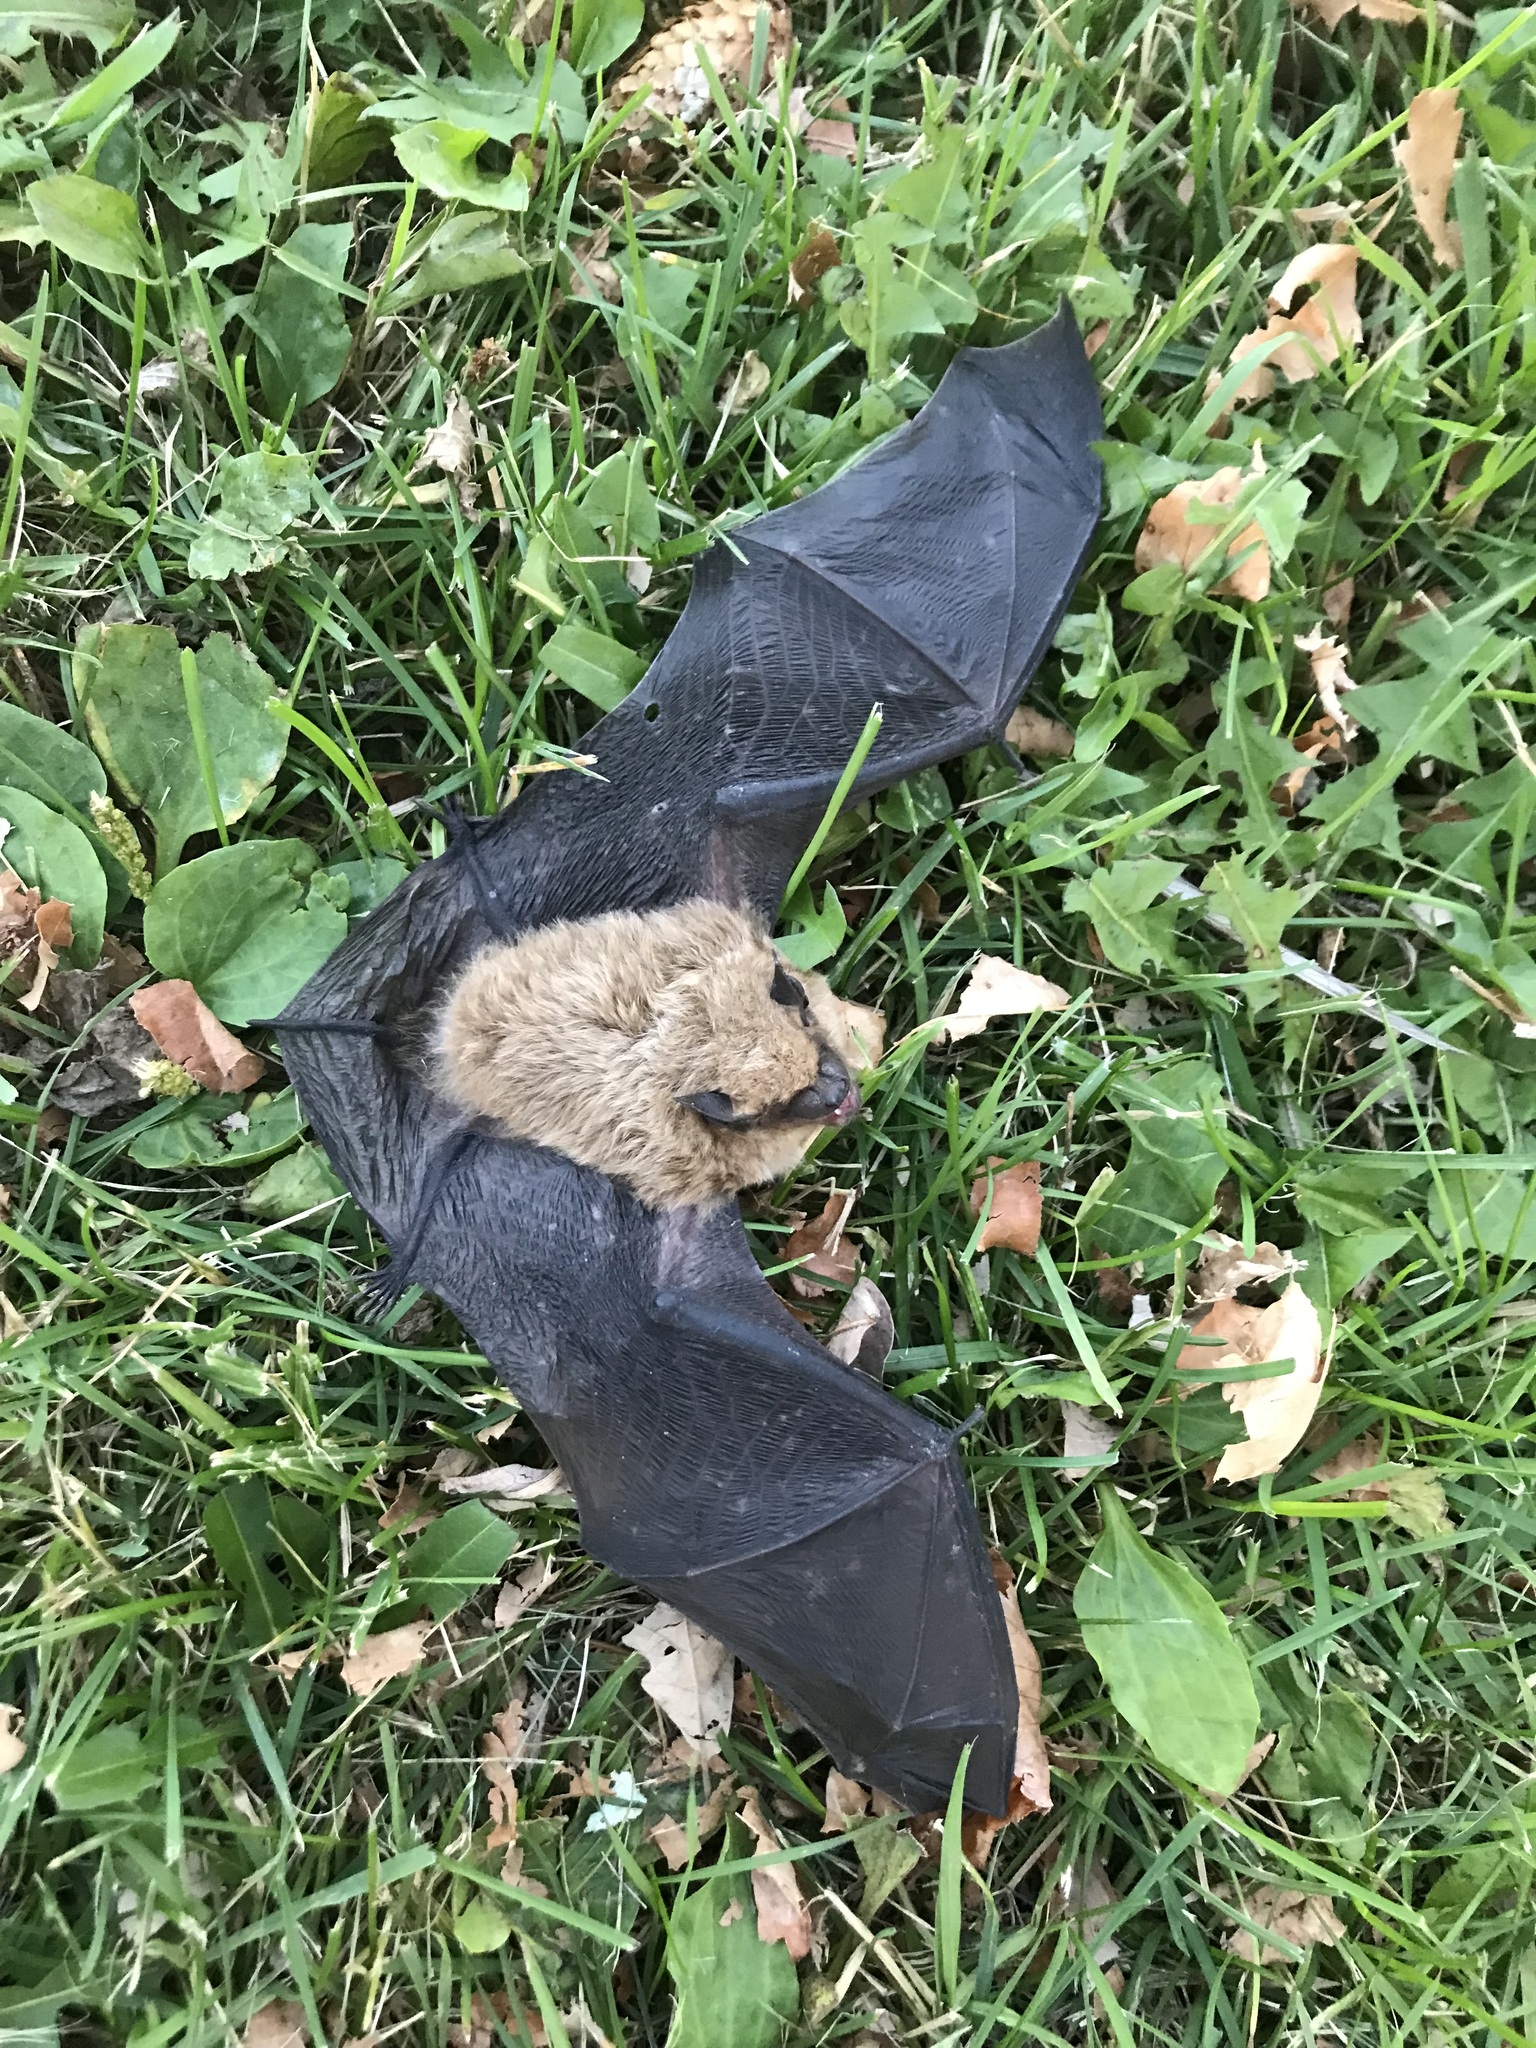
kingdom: Animalia
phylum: Chordata
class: Mammalia
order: Chiroptera
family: Vespertilionidae
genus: Eptesicus
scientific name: Eptesicus fuscus
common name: Big brown bat
